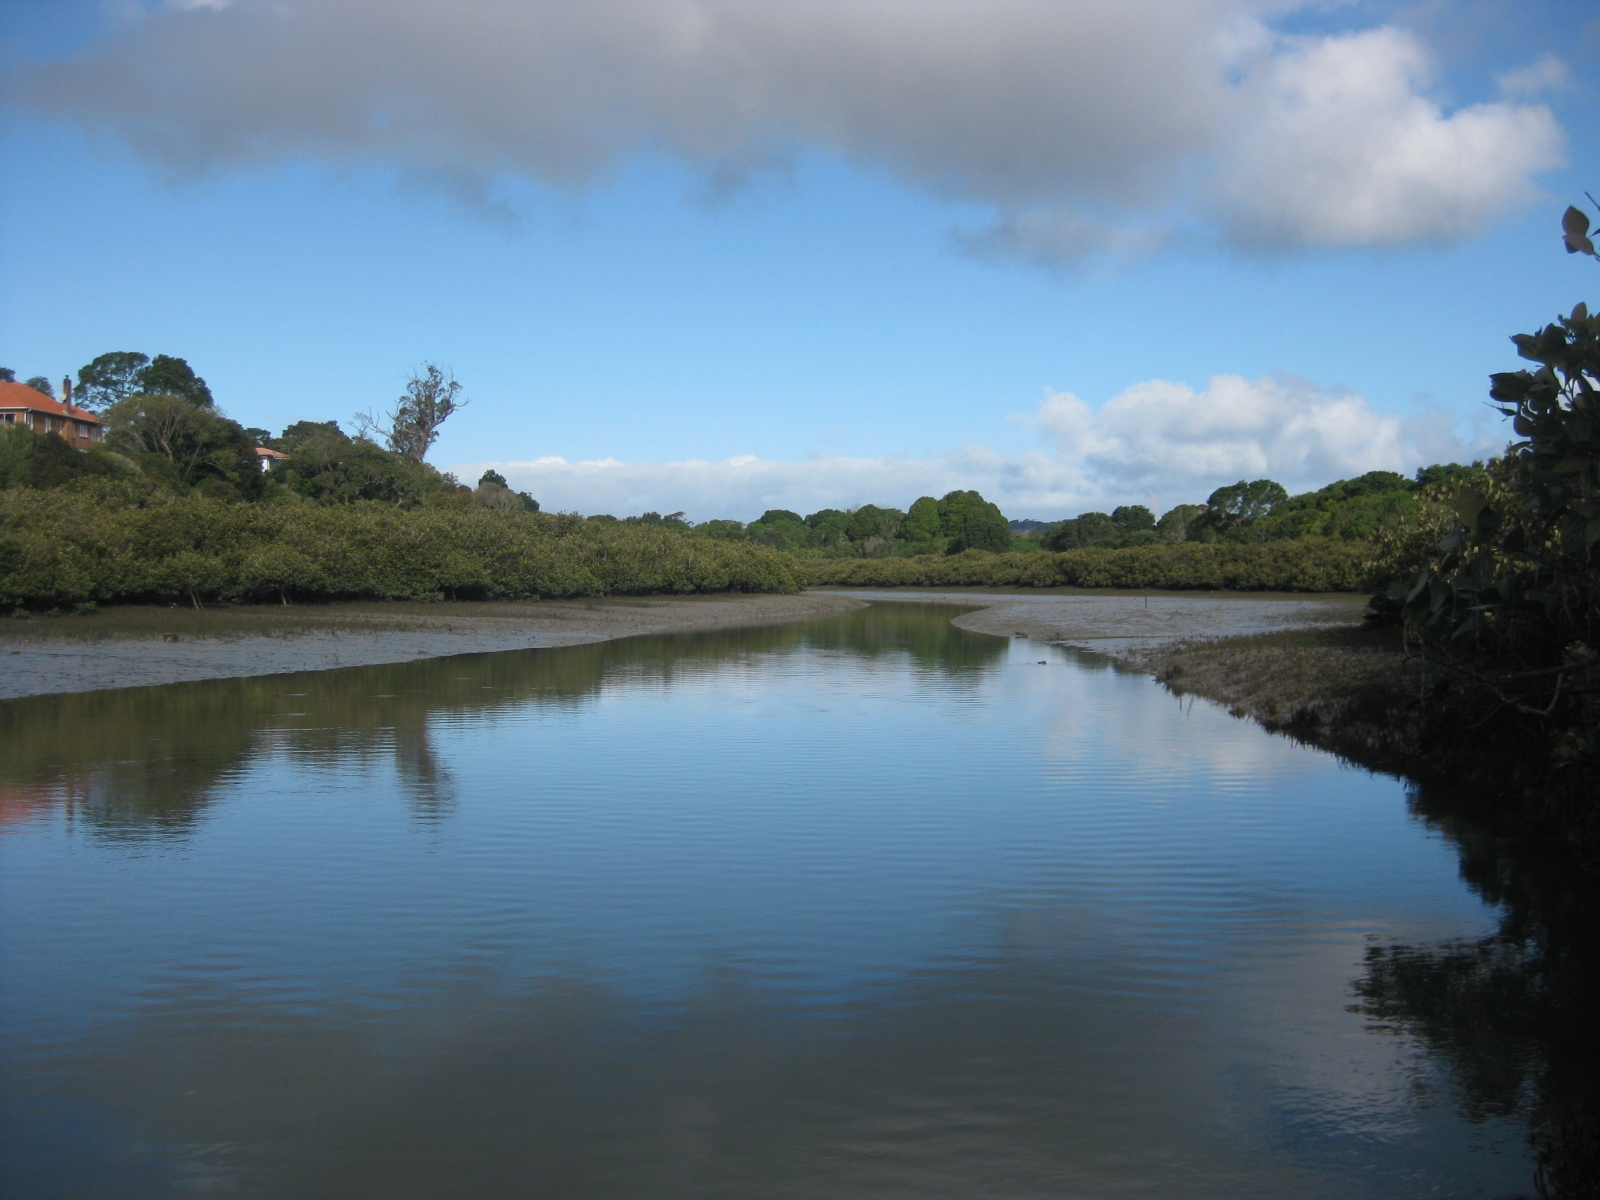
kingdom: Plantae
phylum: Tracheophyta
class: Magnoliopsida
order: Lamiales
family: Acanthaceae
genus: Avicennia
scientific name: Avicennia marina
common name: Gray mangrove
